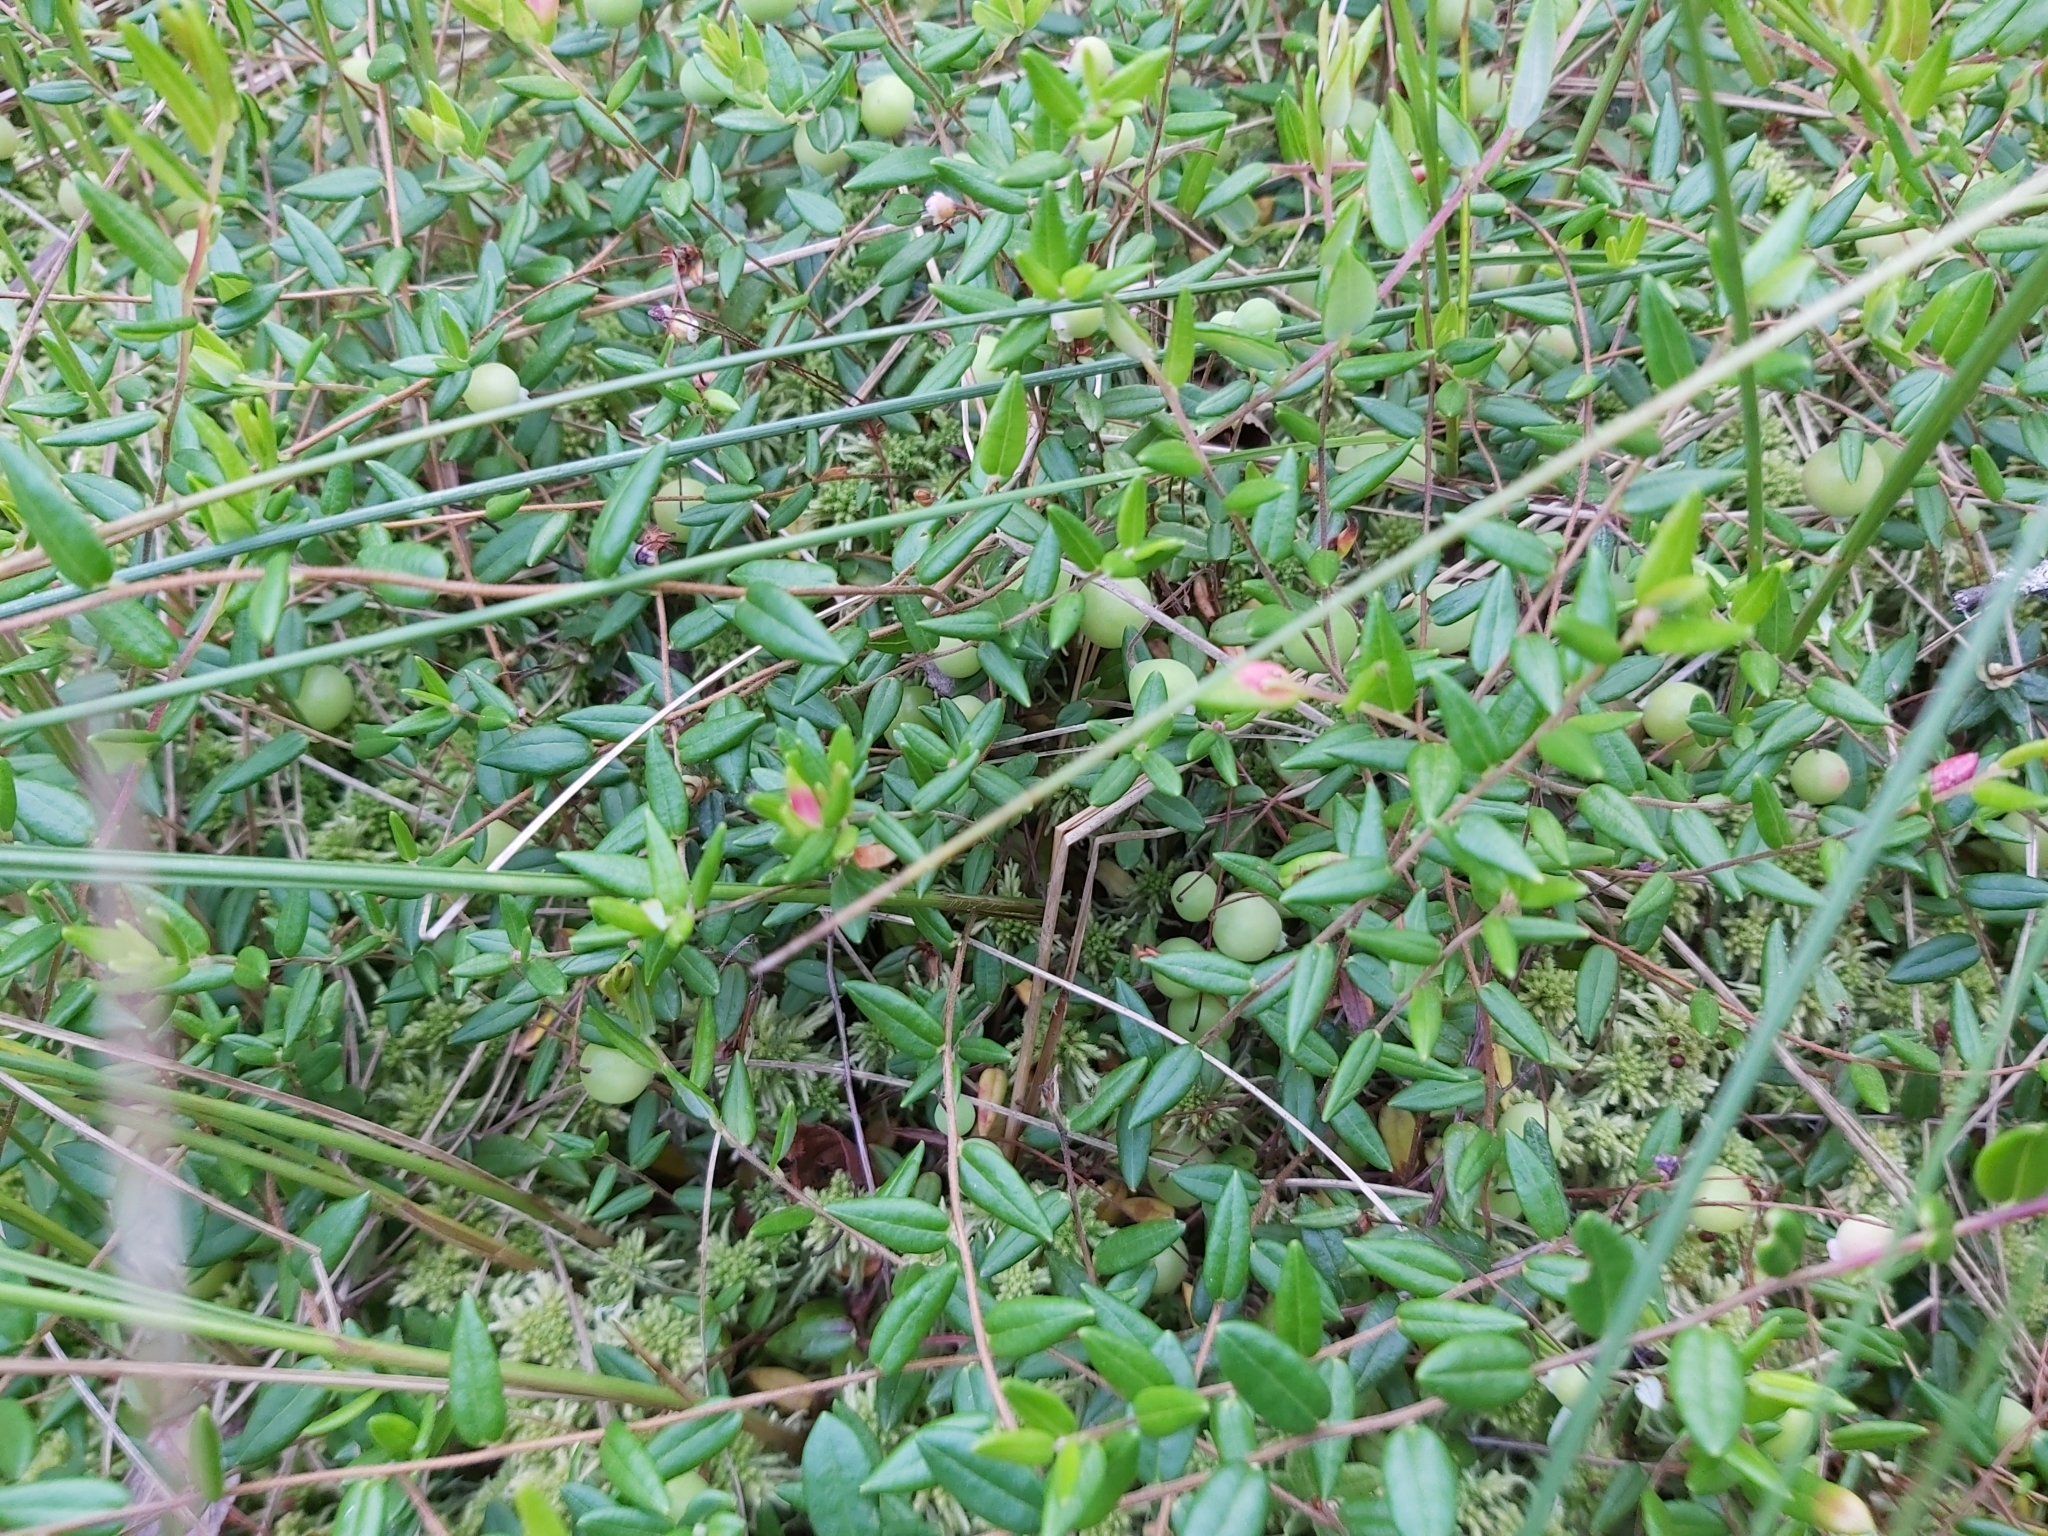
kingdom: Fungi
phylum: Basidiomycota
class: Exobasidiomycetes
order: Exobasidiales
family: Exobasidiaceae
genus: Exobasidium
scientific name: Exobasidium rostrupii
